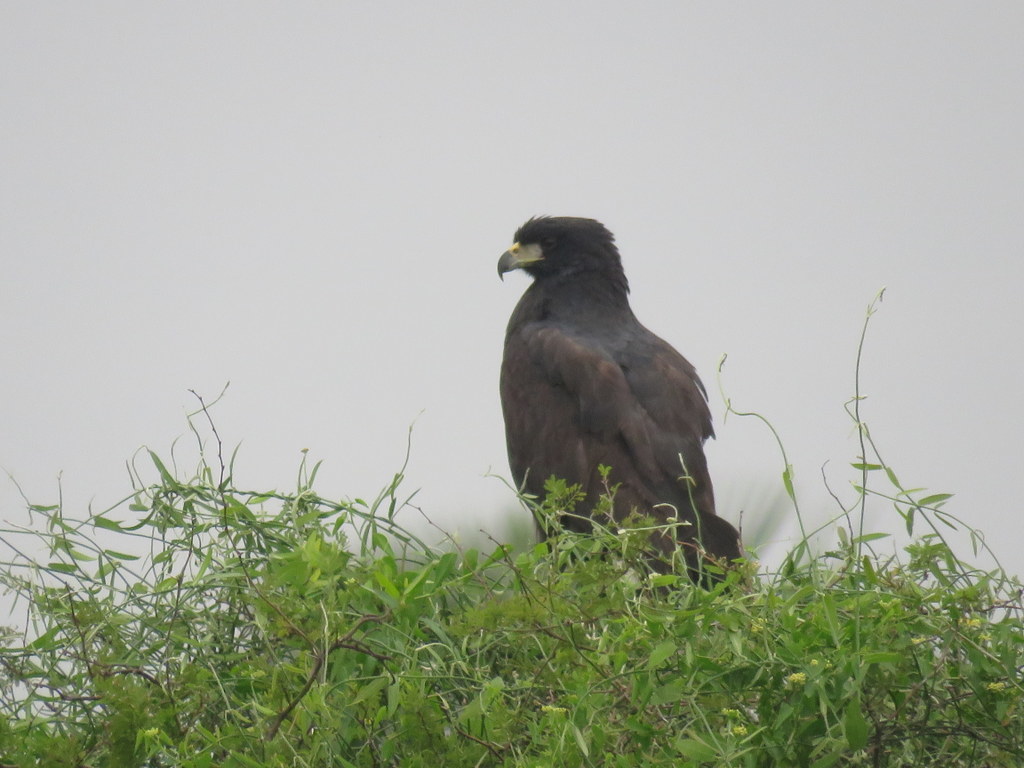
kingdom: Animalia
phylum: Chordata
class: Aves
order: Accipitriformes
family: Accipitridae
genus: Buteogallus
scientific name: Buteogallus urubitinga
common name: Great black hawk
